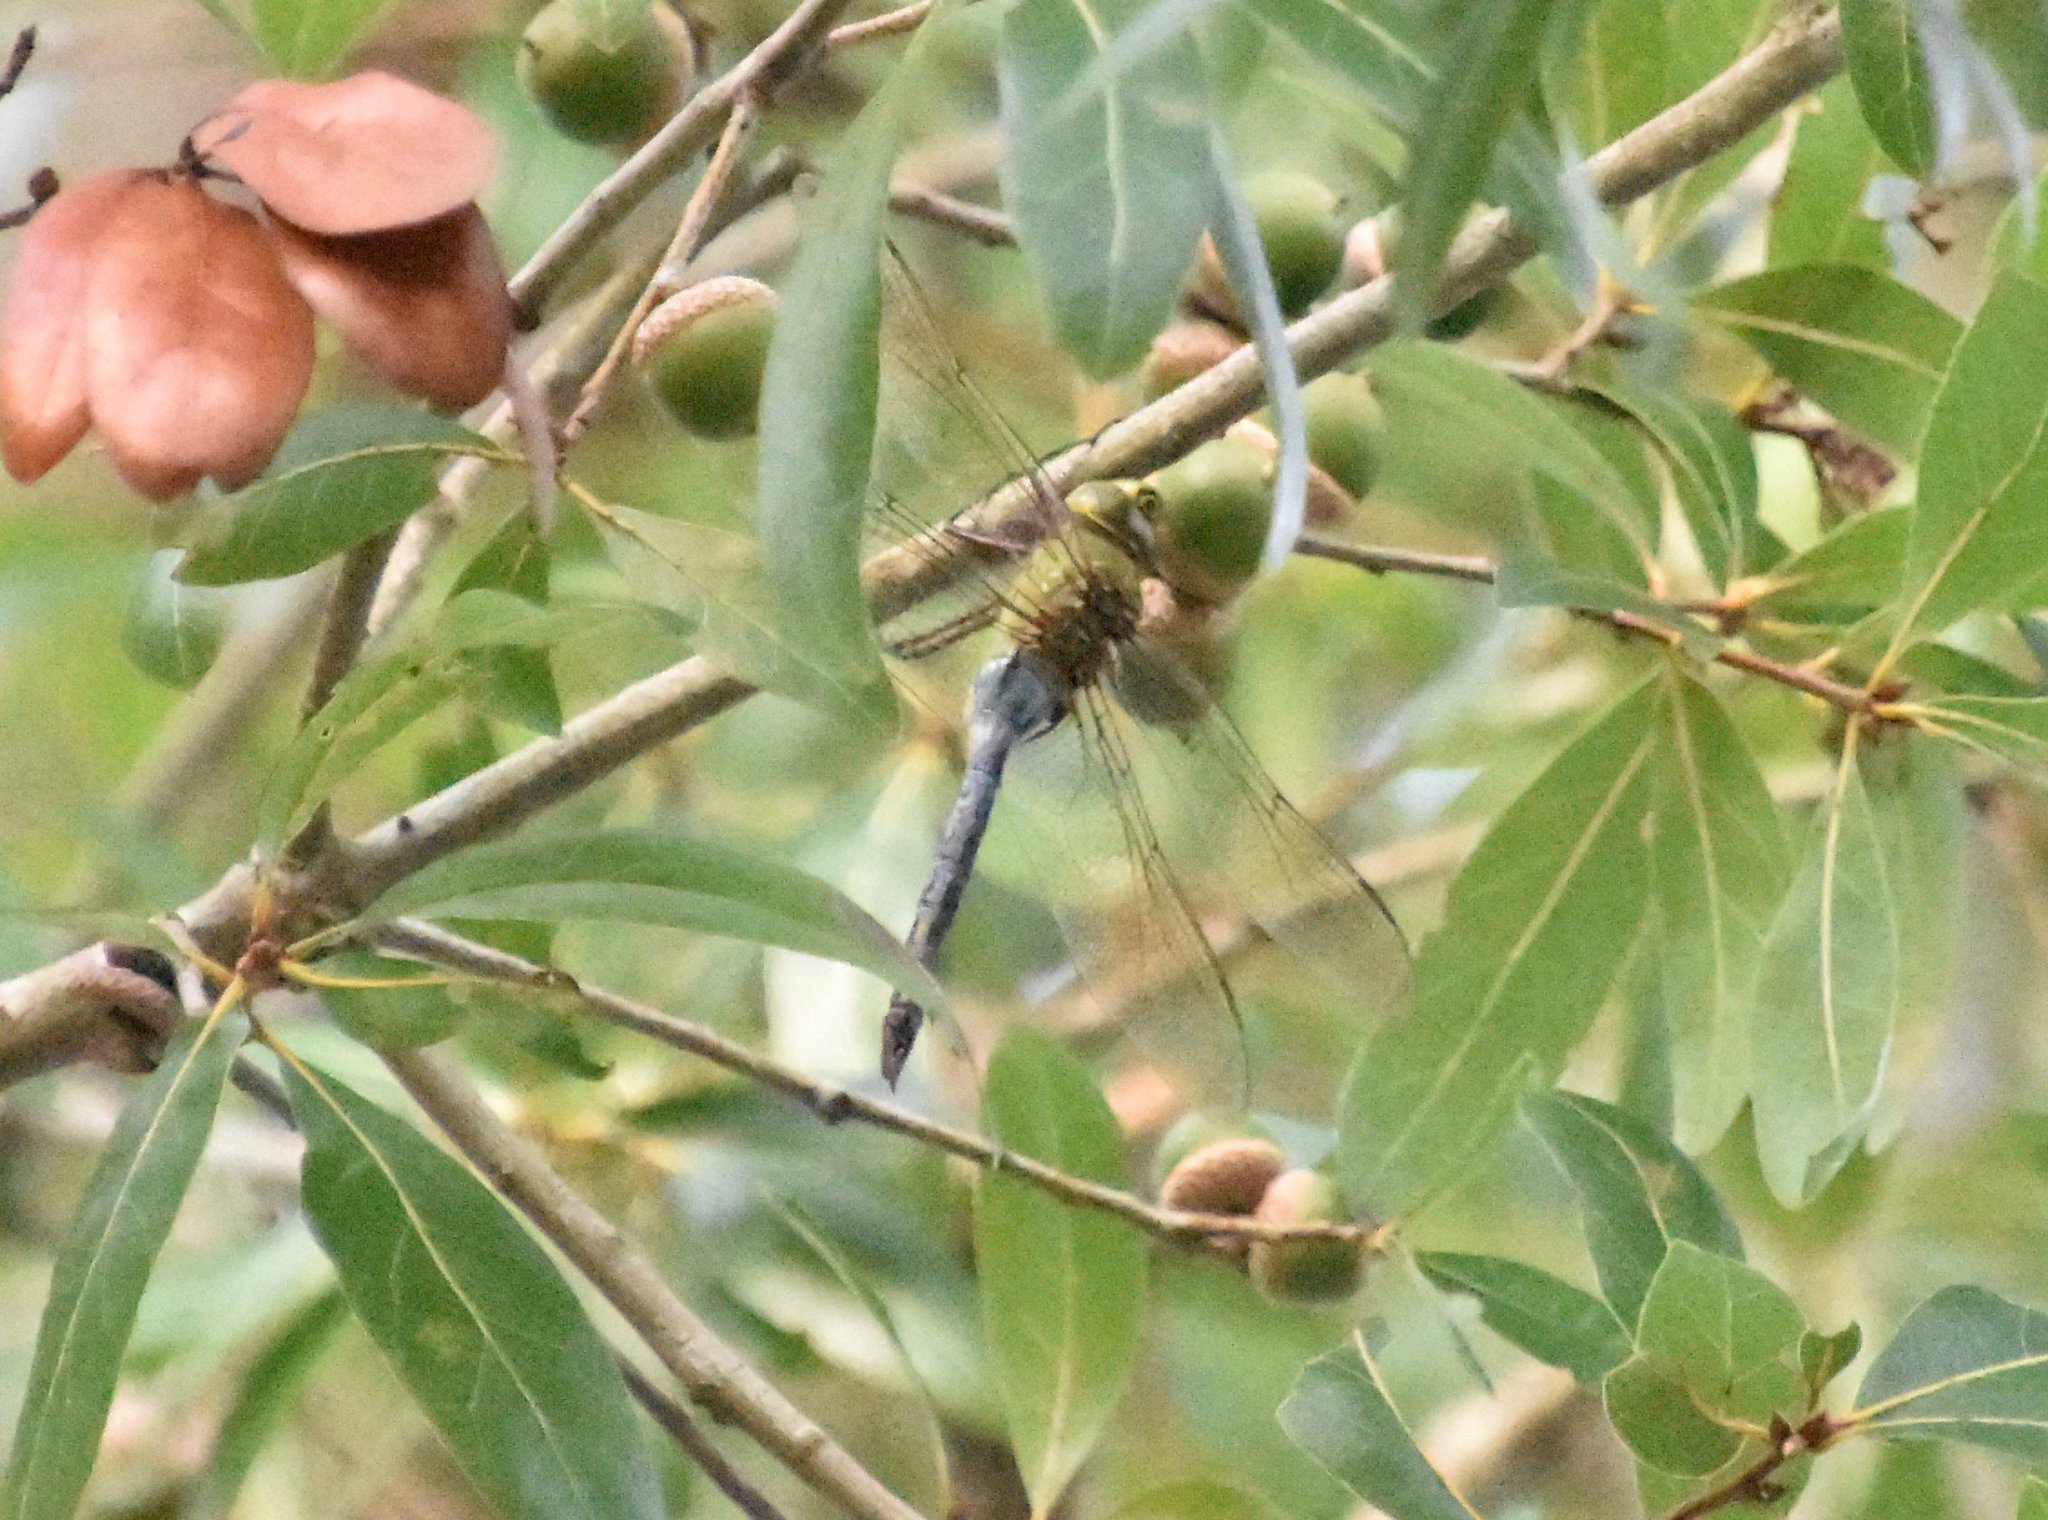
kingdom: Animalia
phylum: Arthropoda
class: Insecta
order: Odonata
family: Aeshnidae
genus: Anax
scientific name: Anax junius
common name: Common green darner
